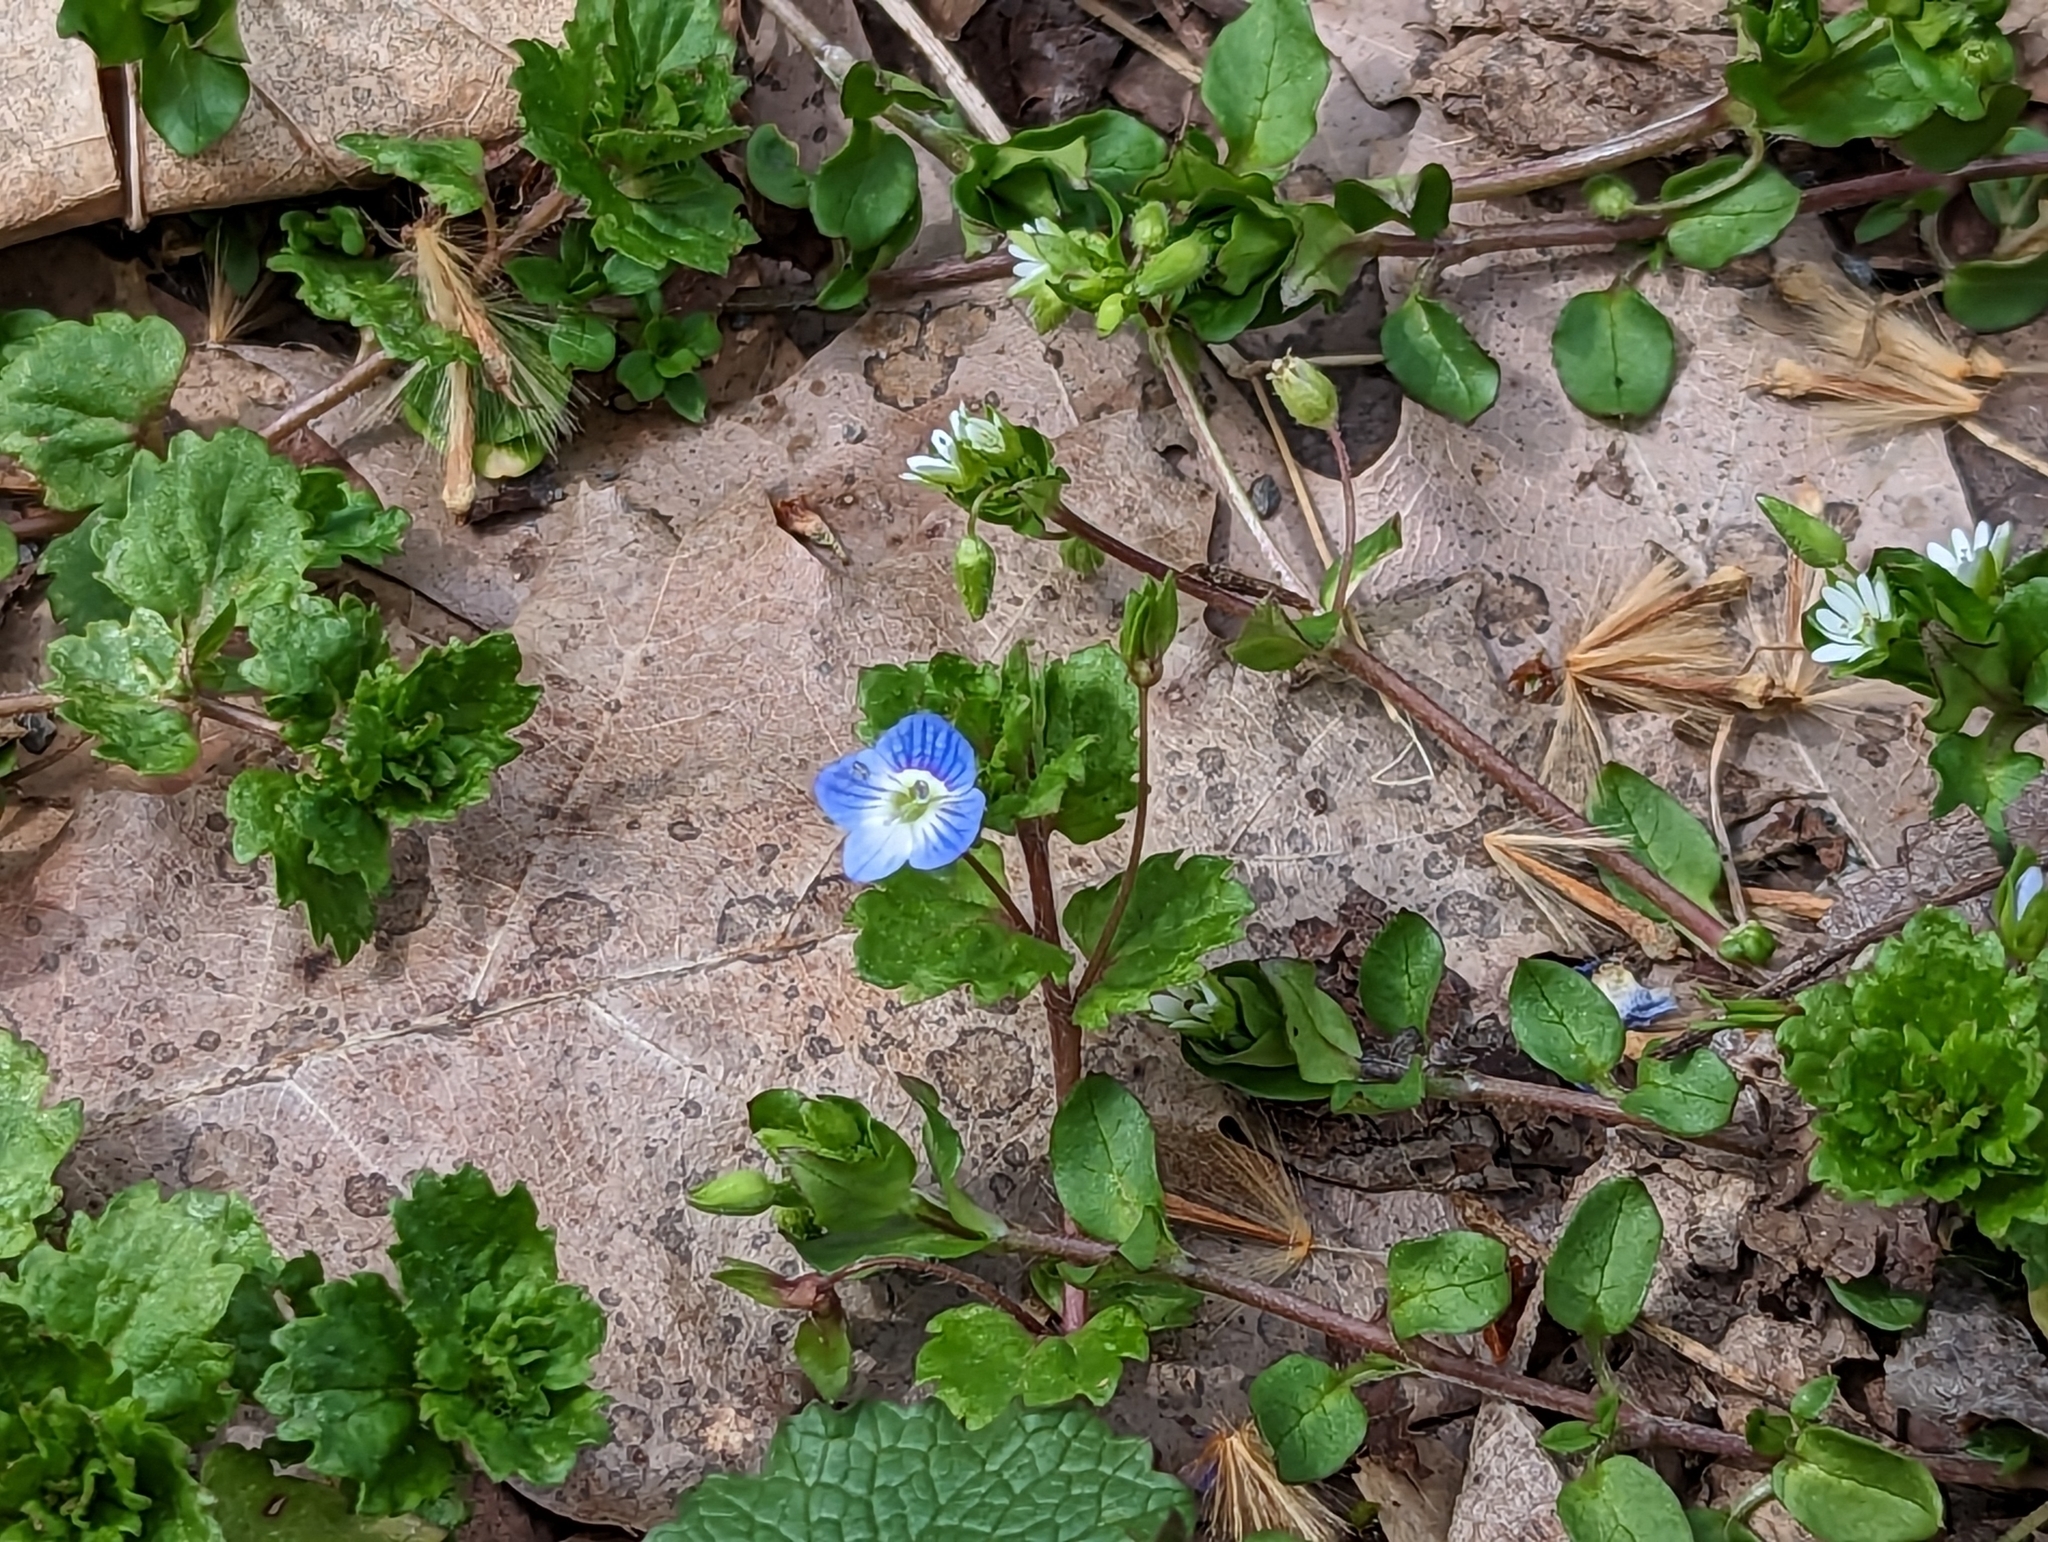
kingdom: Plantae
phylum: Tracheophyta
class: Magnoliopsida
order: Lamiales
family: Plantaginaceae
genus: Veronica
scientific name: Veronica persica
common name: Common field-speedwell
